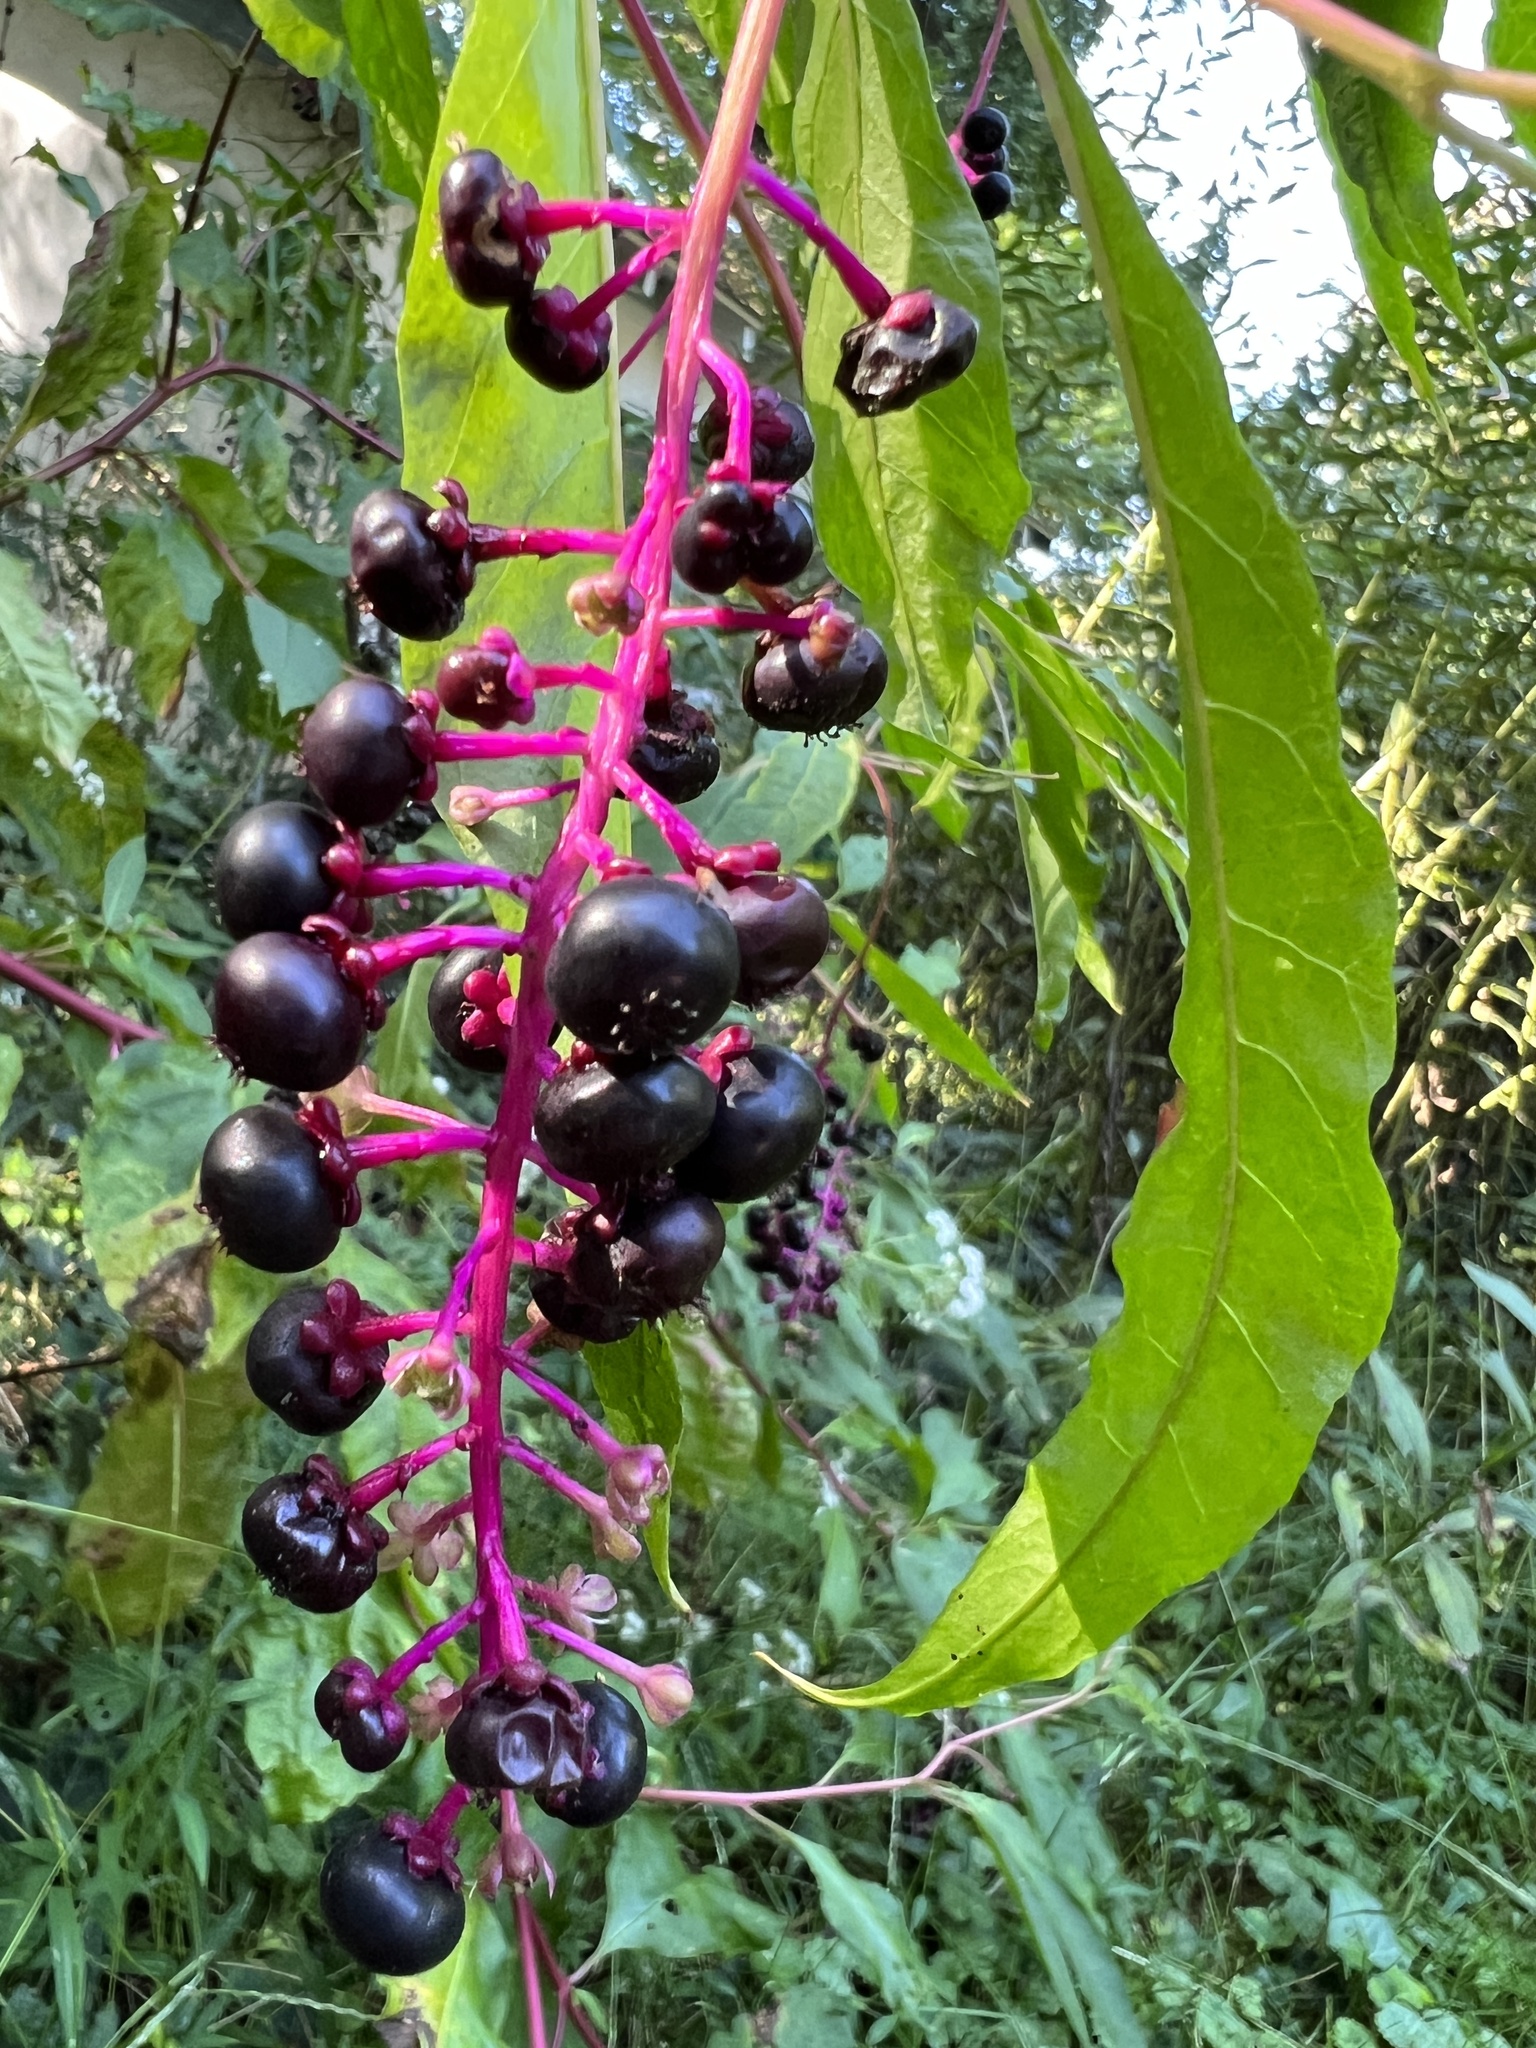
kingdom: Plantae
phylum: Tracheophyta
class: Magnoliopsida
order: Caryophyllales
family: Phytolaccaceae
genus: Phytolacca
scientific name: Phytolacca americana
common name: American pokeweed
